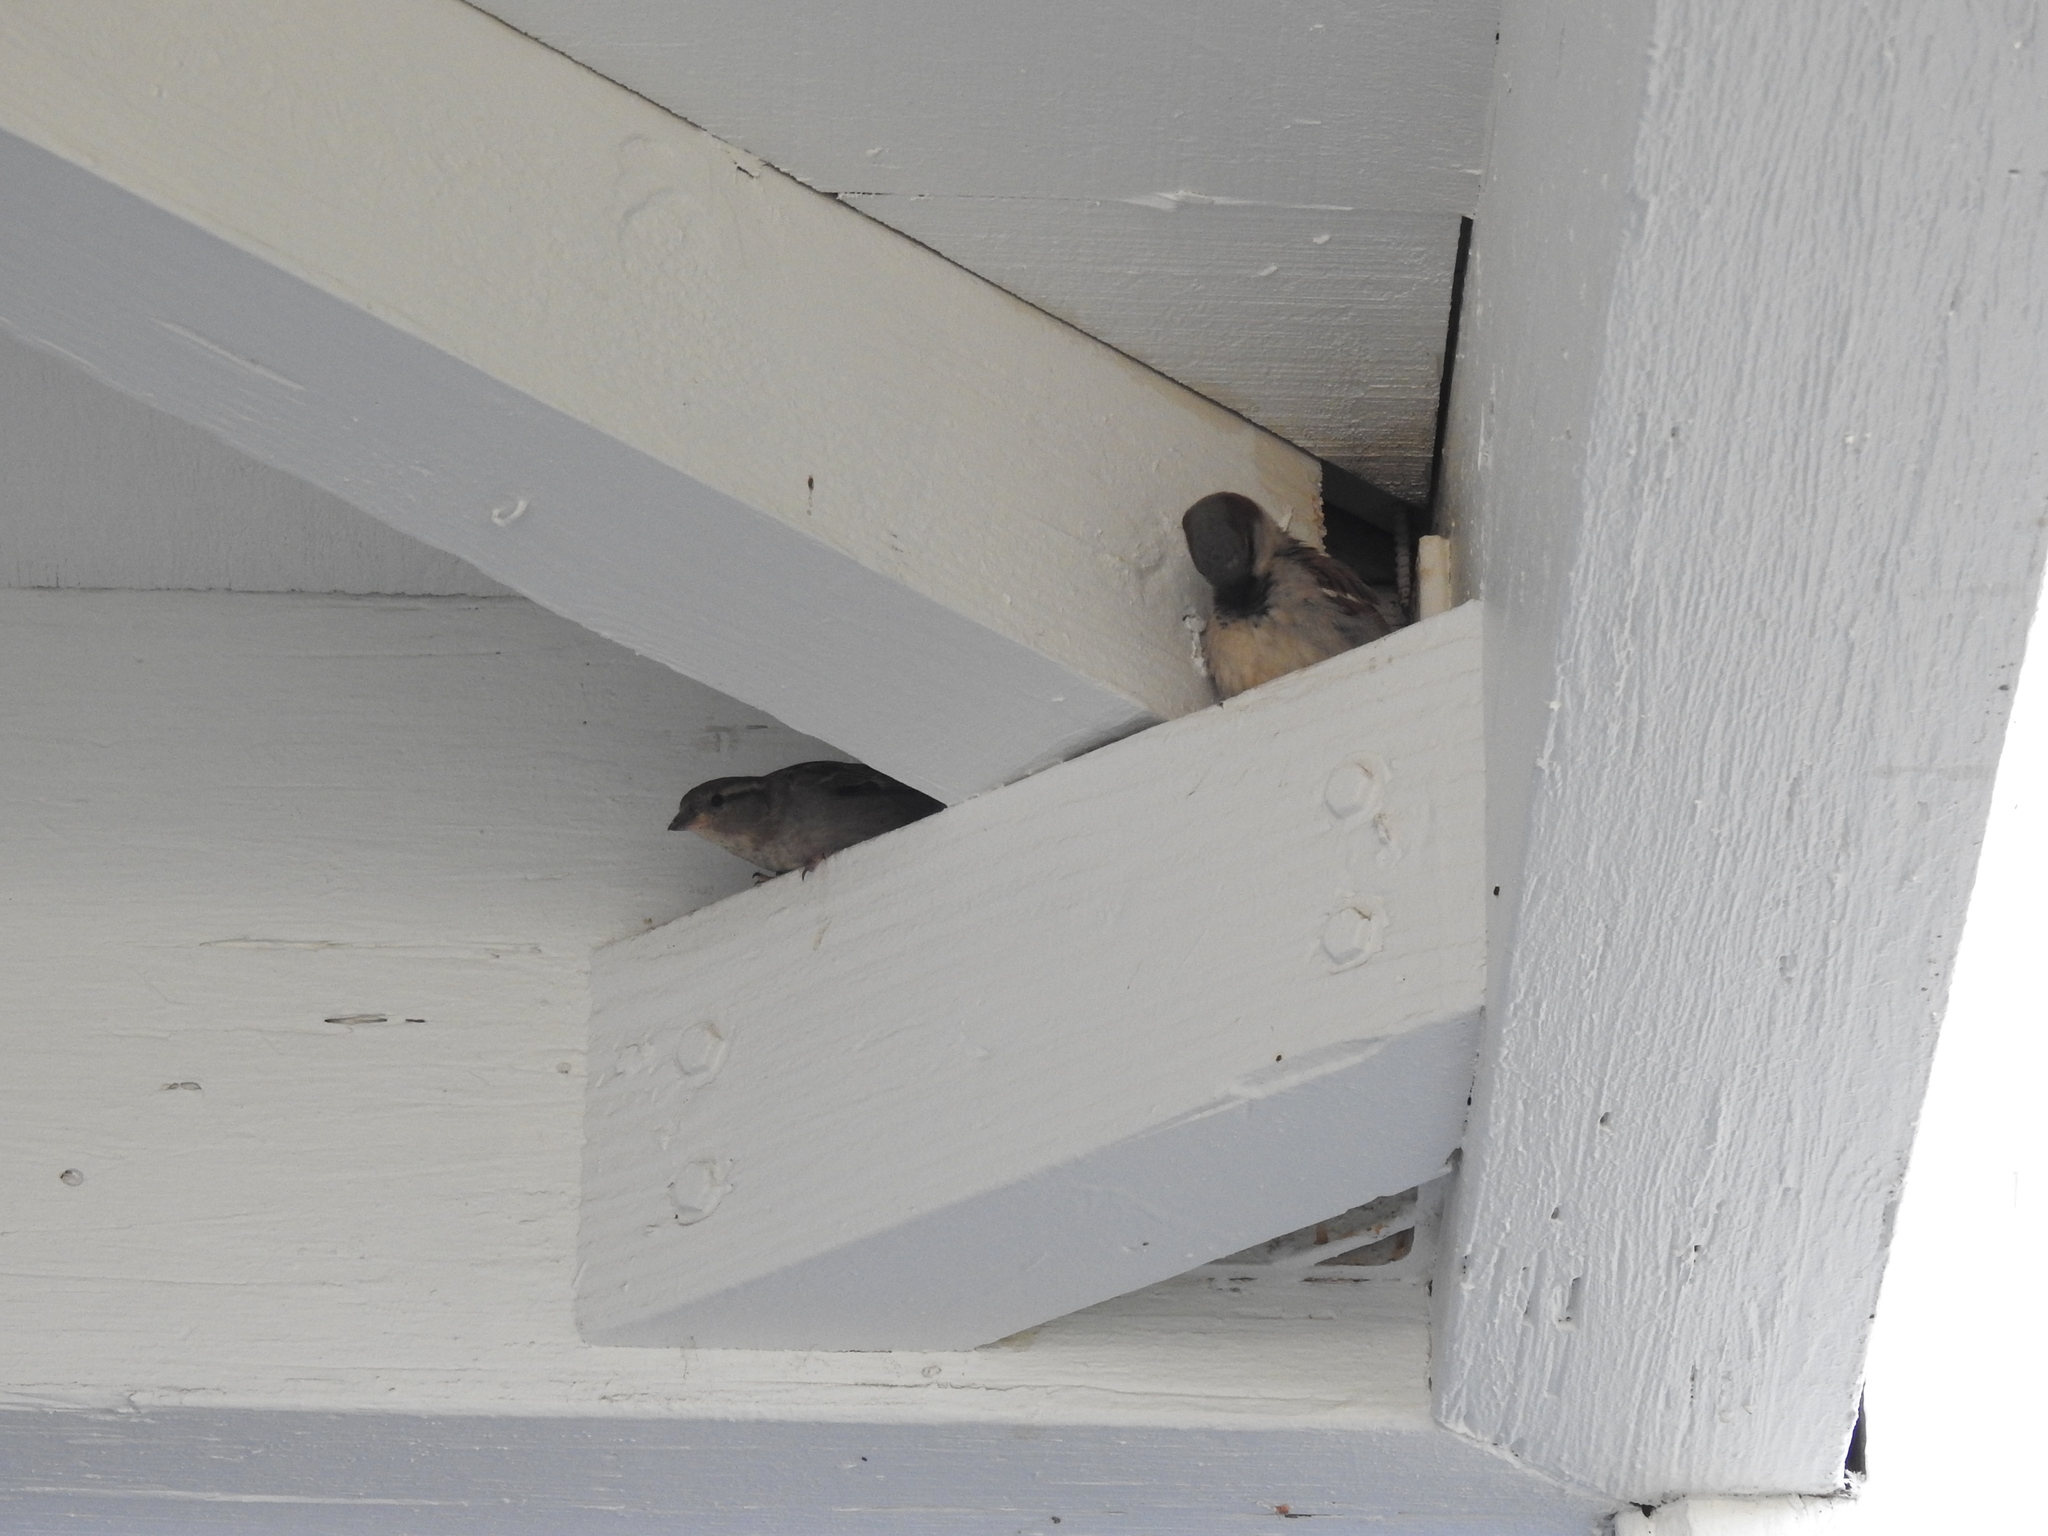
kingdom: Animalia
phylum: Chordata
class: Aves
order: Passeriformes
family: Passeridae
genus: Passer
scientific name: Passer domesticus
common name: House sparrow
